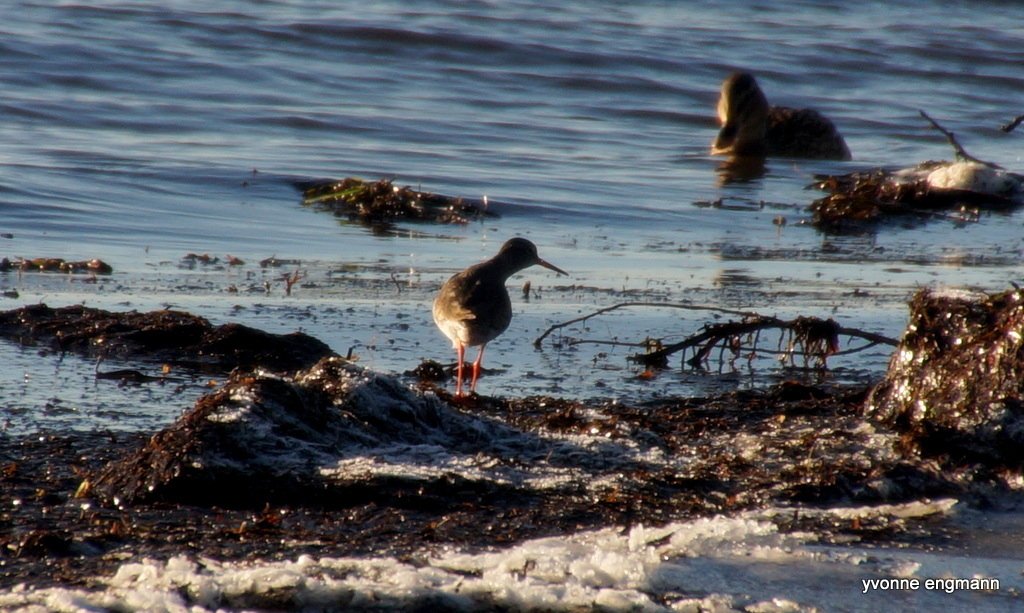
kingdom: Animalia
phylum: Chordata
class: Aves
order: Charadriiformes
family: Scolopacidae
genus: Tringa
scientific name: Tringa totanus
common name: Common redshank
